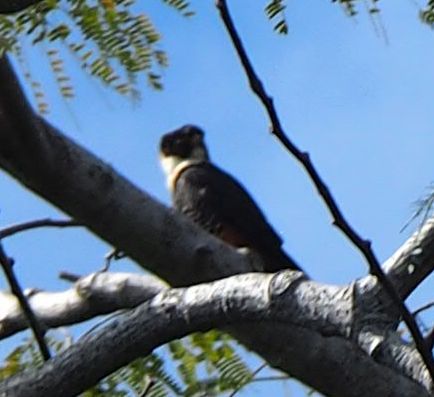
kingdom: Animalia
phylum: Chordata
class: Aves
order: Falconiformes
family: Falconidae
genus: Falco
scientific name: Falco rufigularis
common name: Bat falcon
